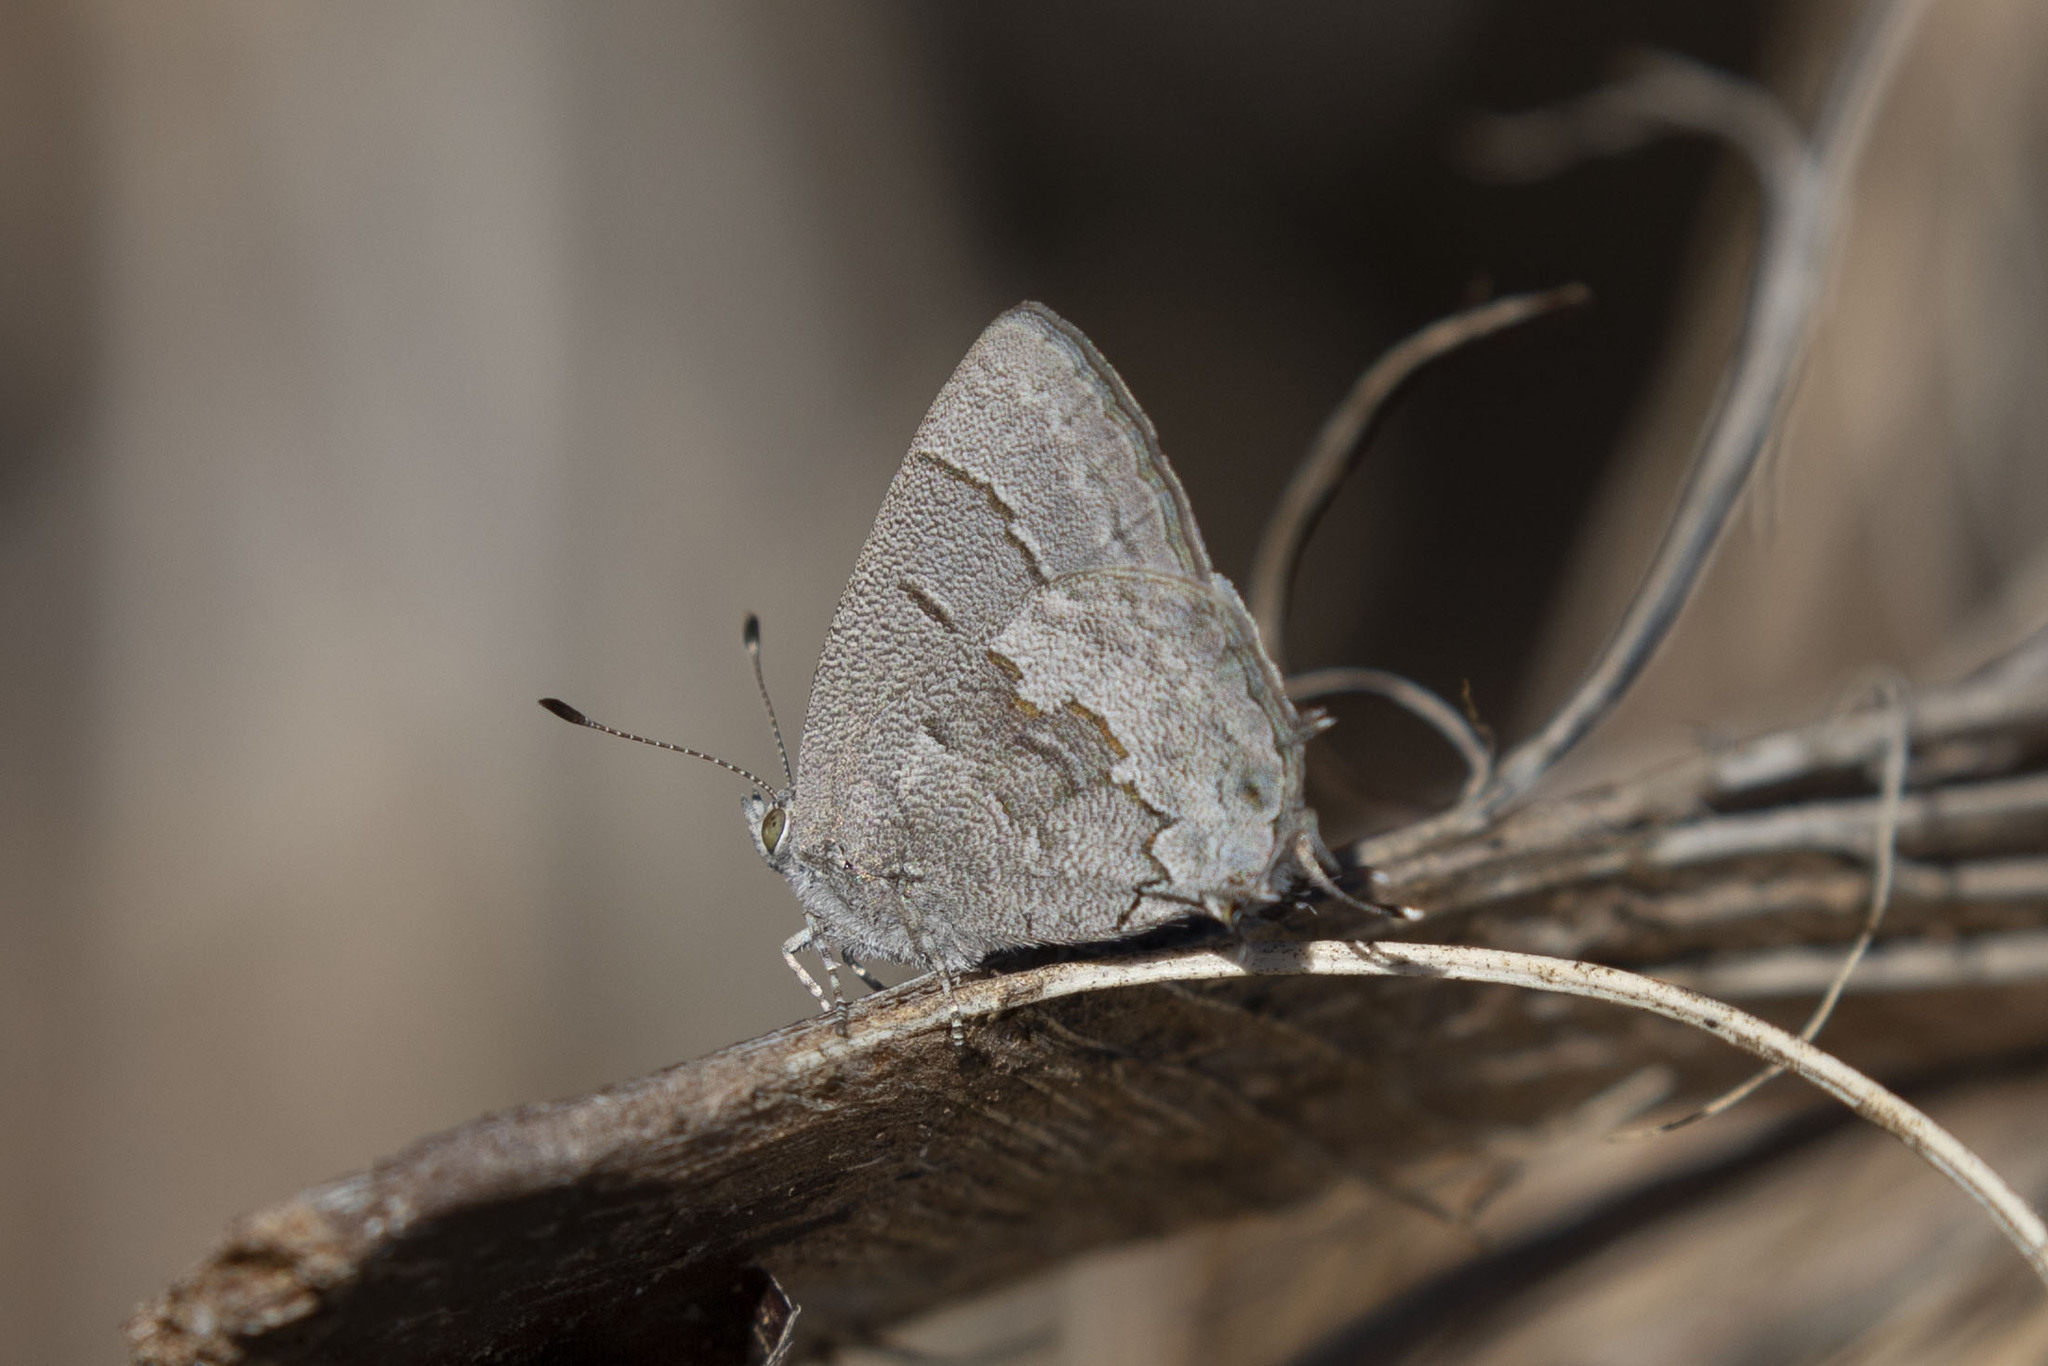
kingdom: Animalia
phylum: Arthropoda
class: Insecta
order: Lepidoptera
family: Lycaenidae
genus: Ministrymon
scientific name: Ministrymon leda
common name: Leda ministreak
